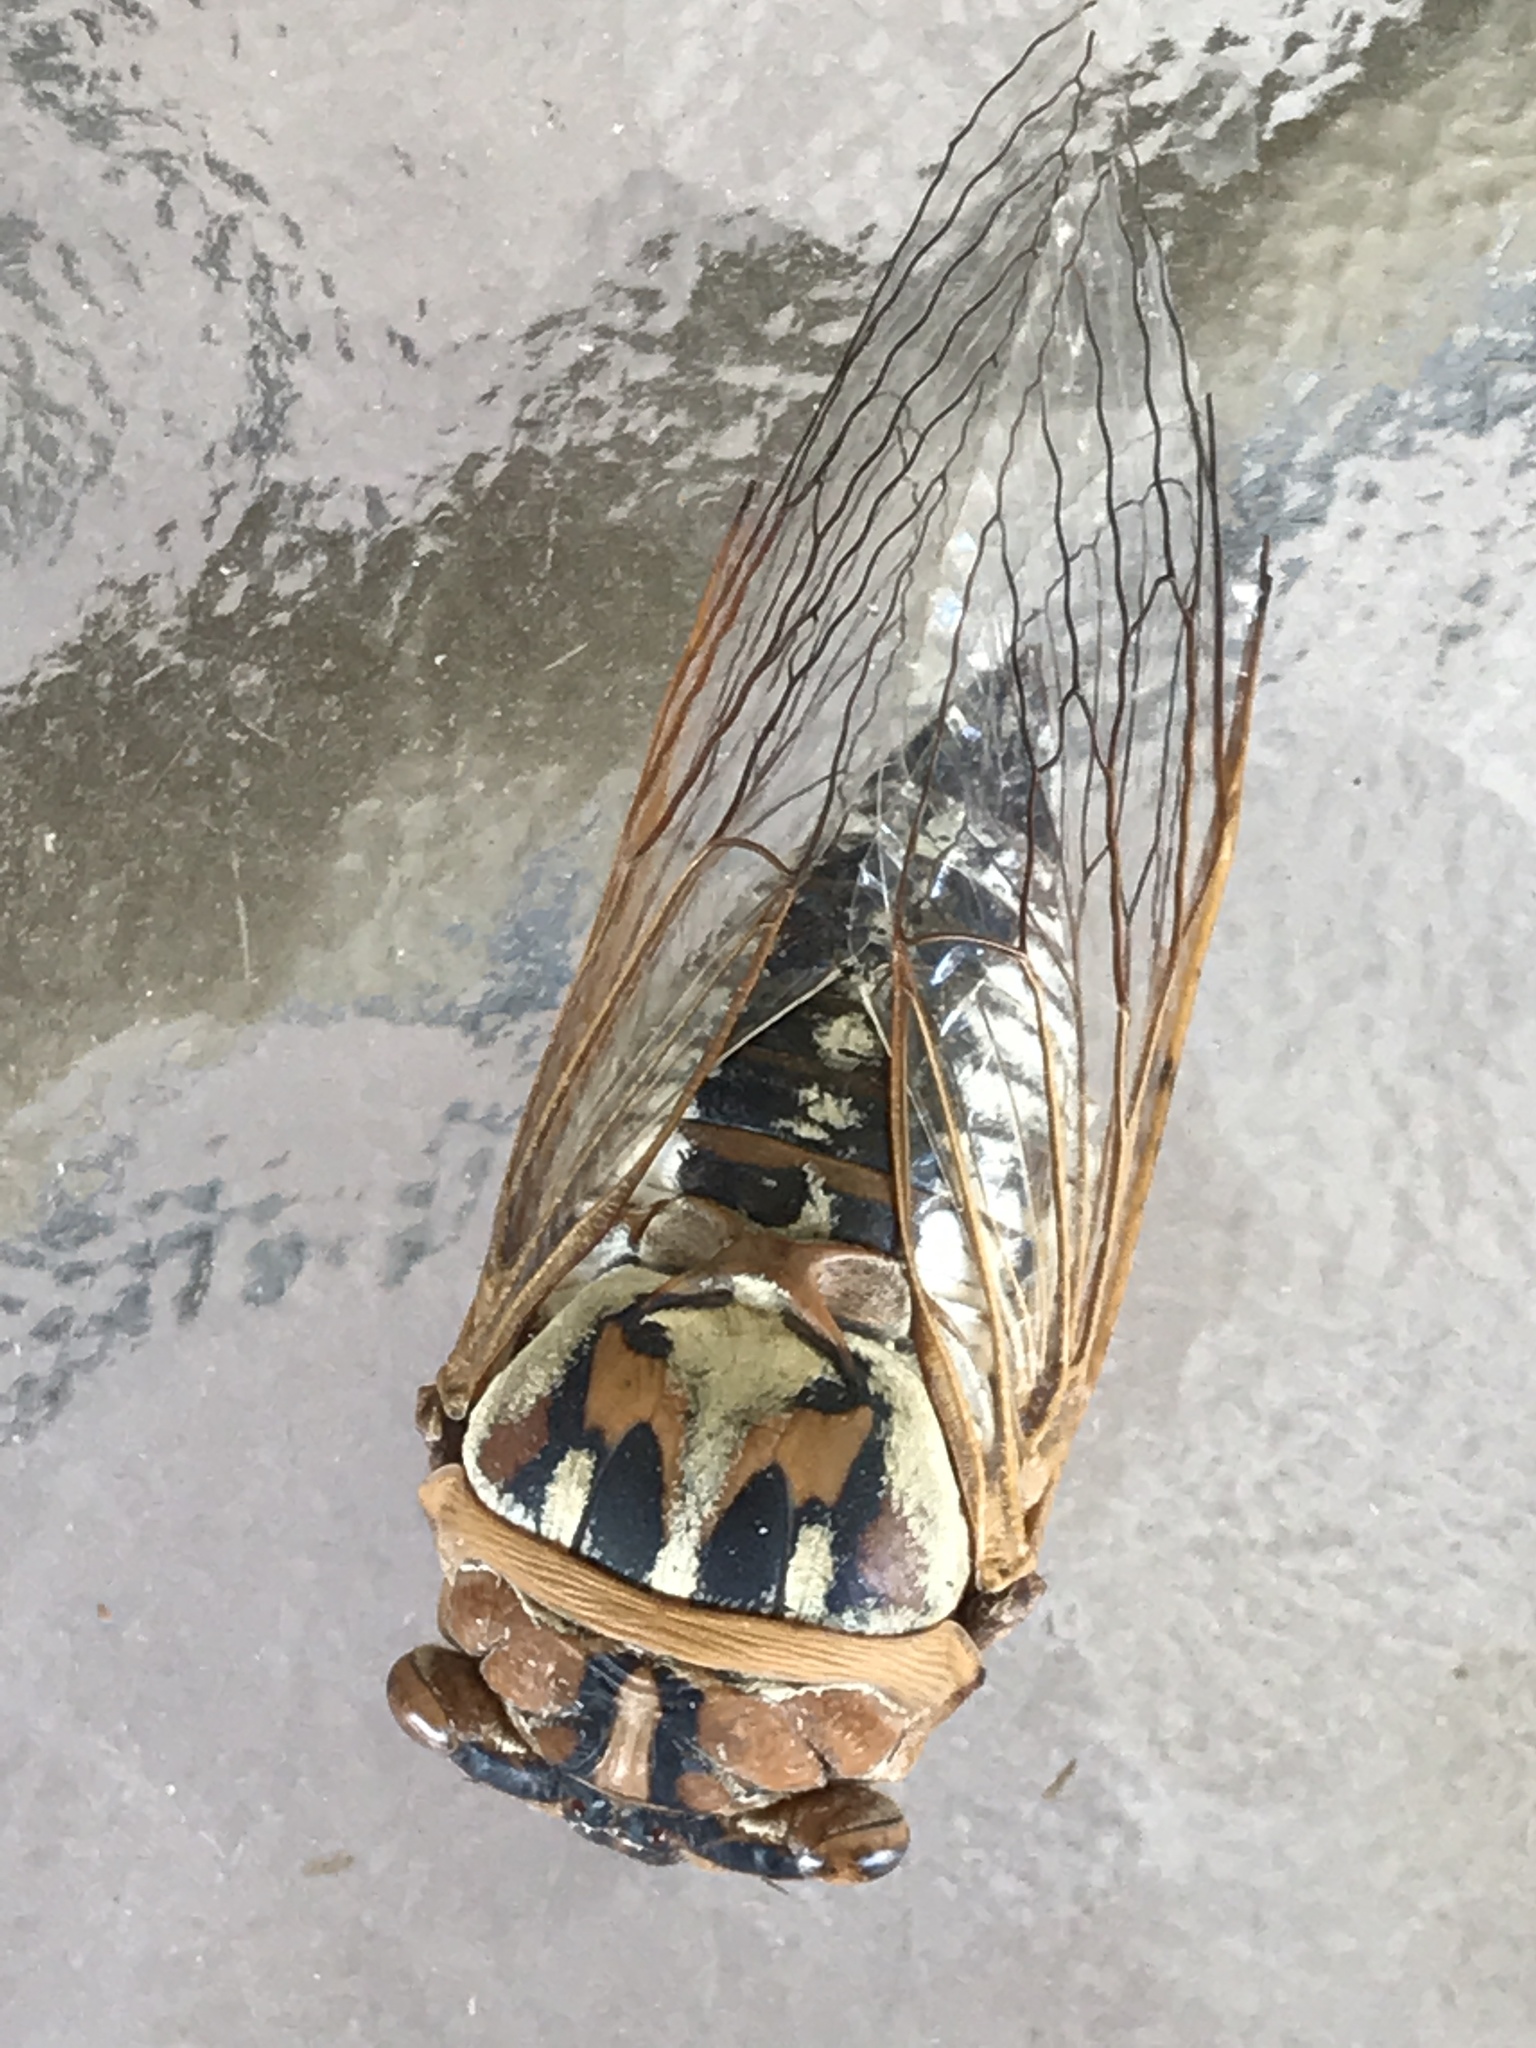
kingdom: Animalia
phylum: Arthropoda
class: Insecta
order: Hemiptera
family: Cicadidae
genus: Megatibicen
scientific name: Megatibicen dealbatus
